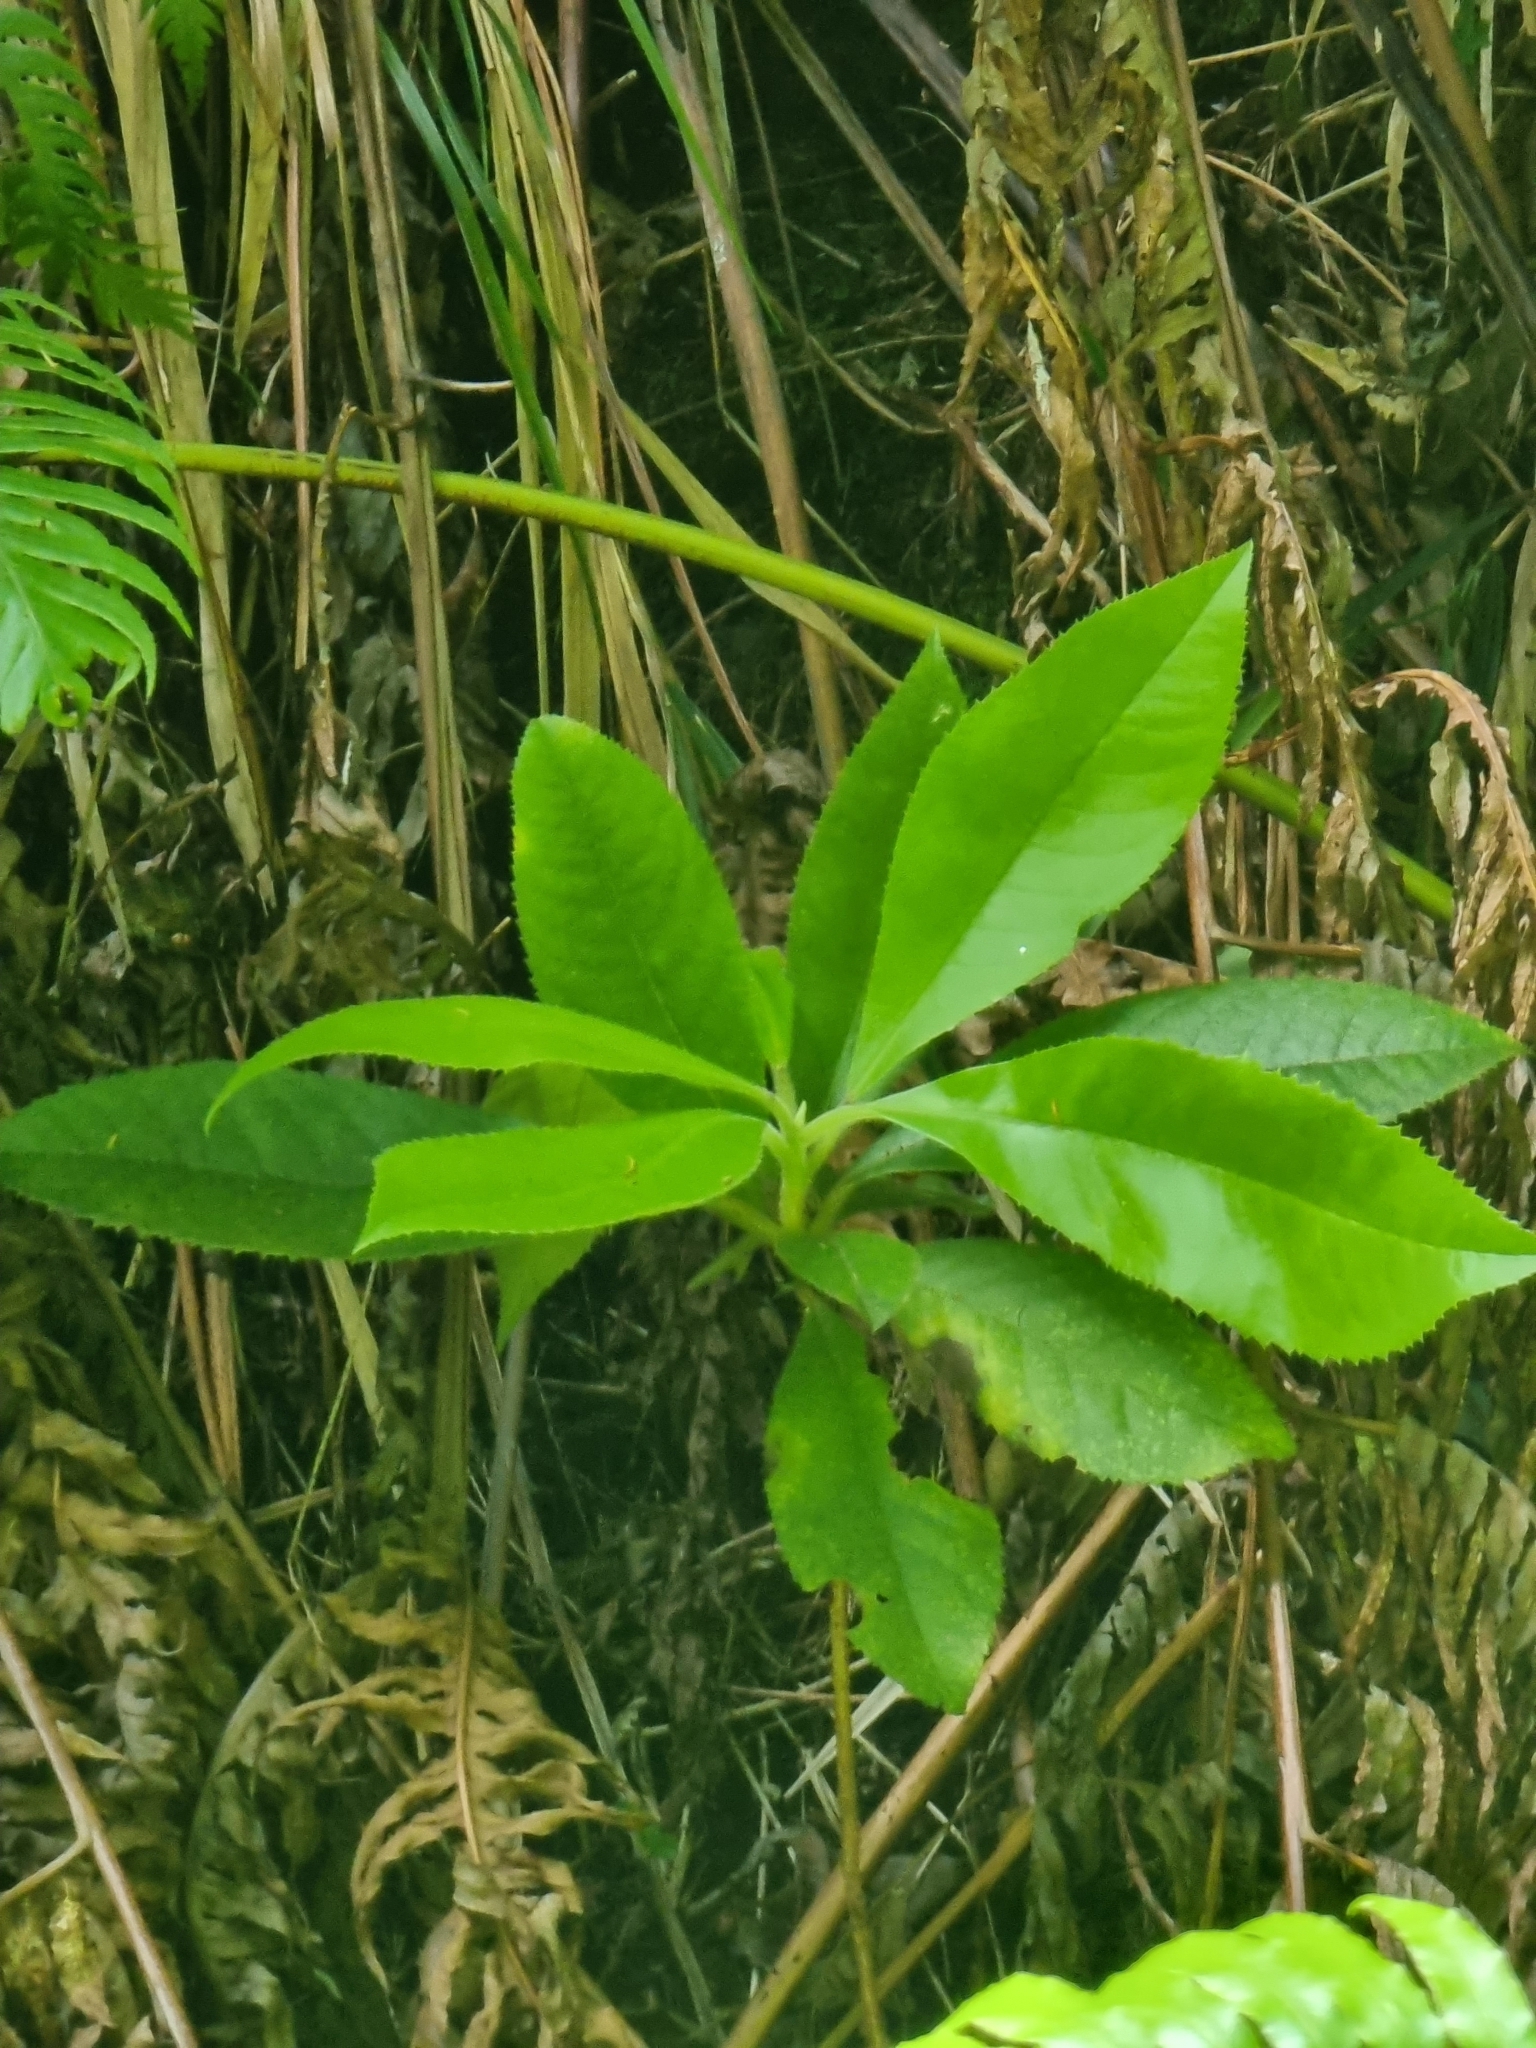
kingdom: Plantae
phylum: Tracheophyta
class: Magnoliopsida
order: Ericales
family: Clethraceae
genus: Clethra
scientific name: Clethra arborea
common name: Lily-of-the-valley-tree
